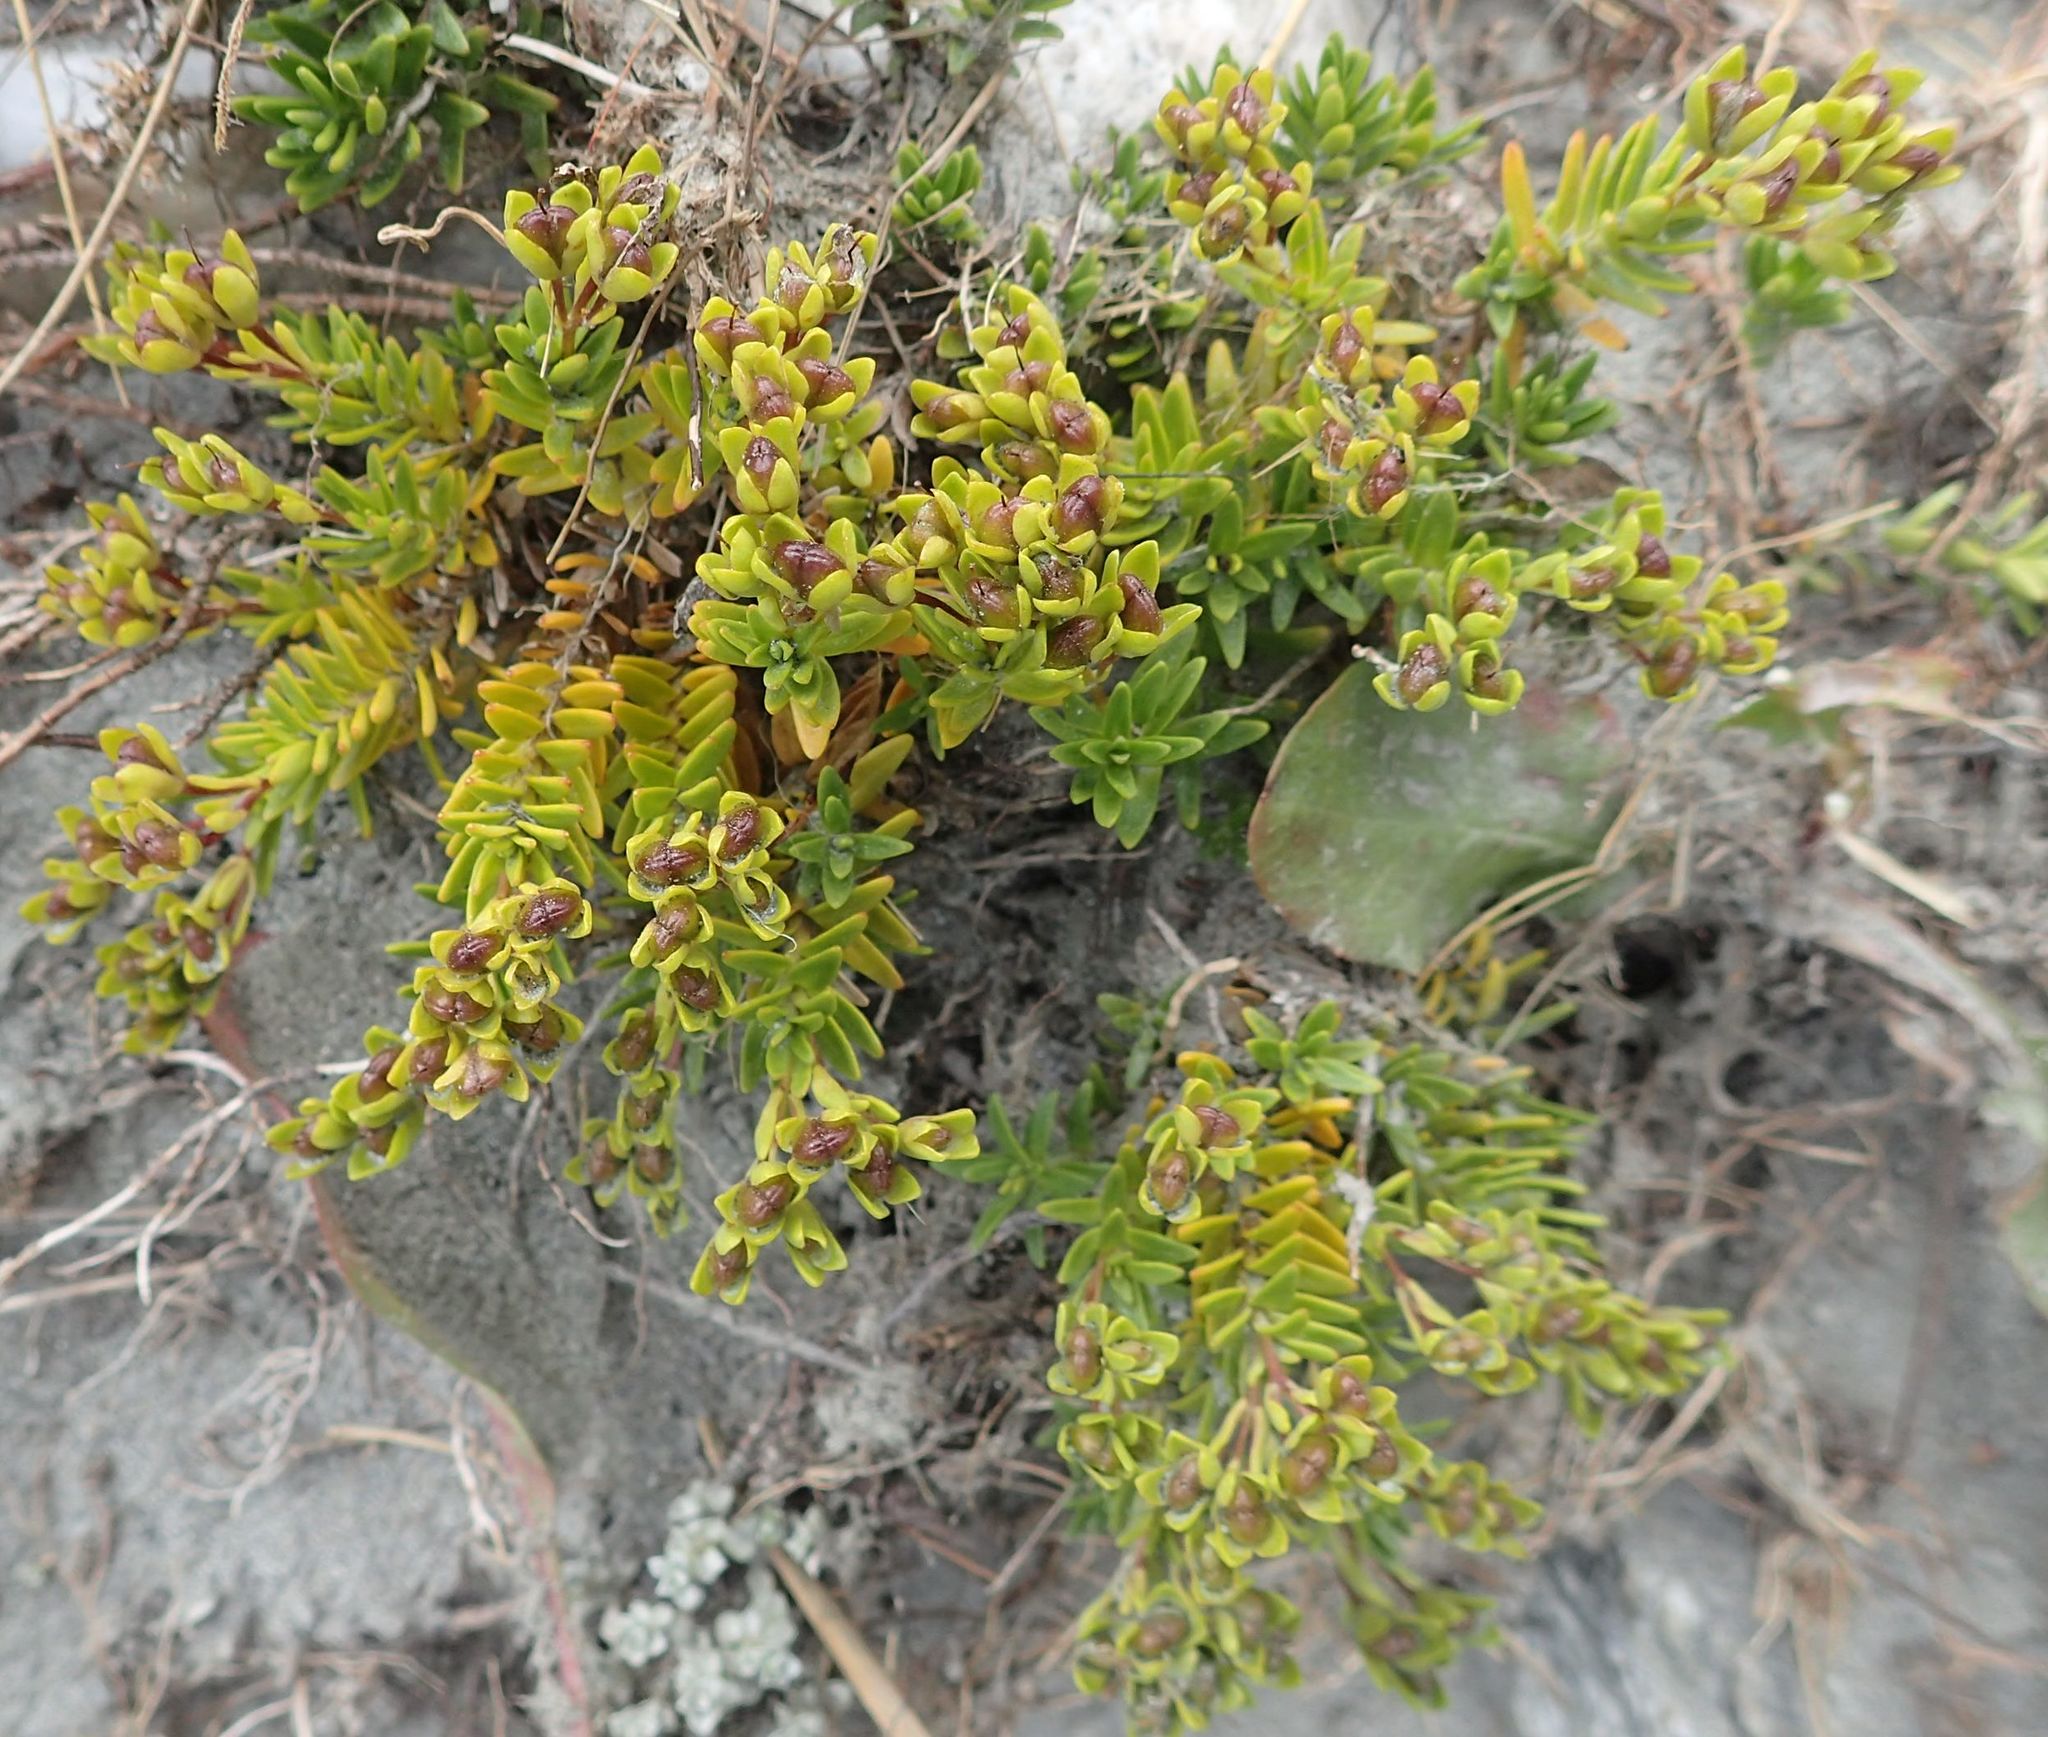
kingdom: Plantae
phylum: Tracheophyta
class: Magnoliopsida
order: Lamiales
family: Plantaginaceae
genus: Veronica
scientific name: Veronica colostylis
